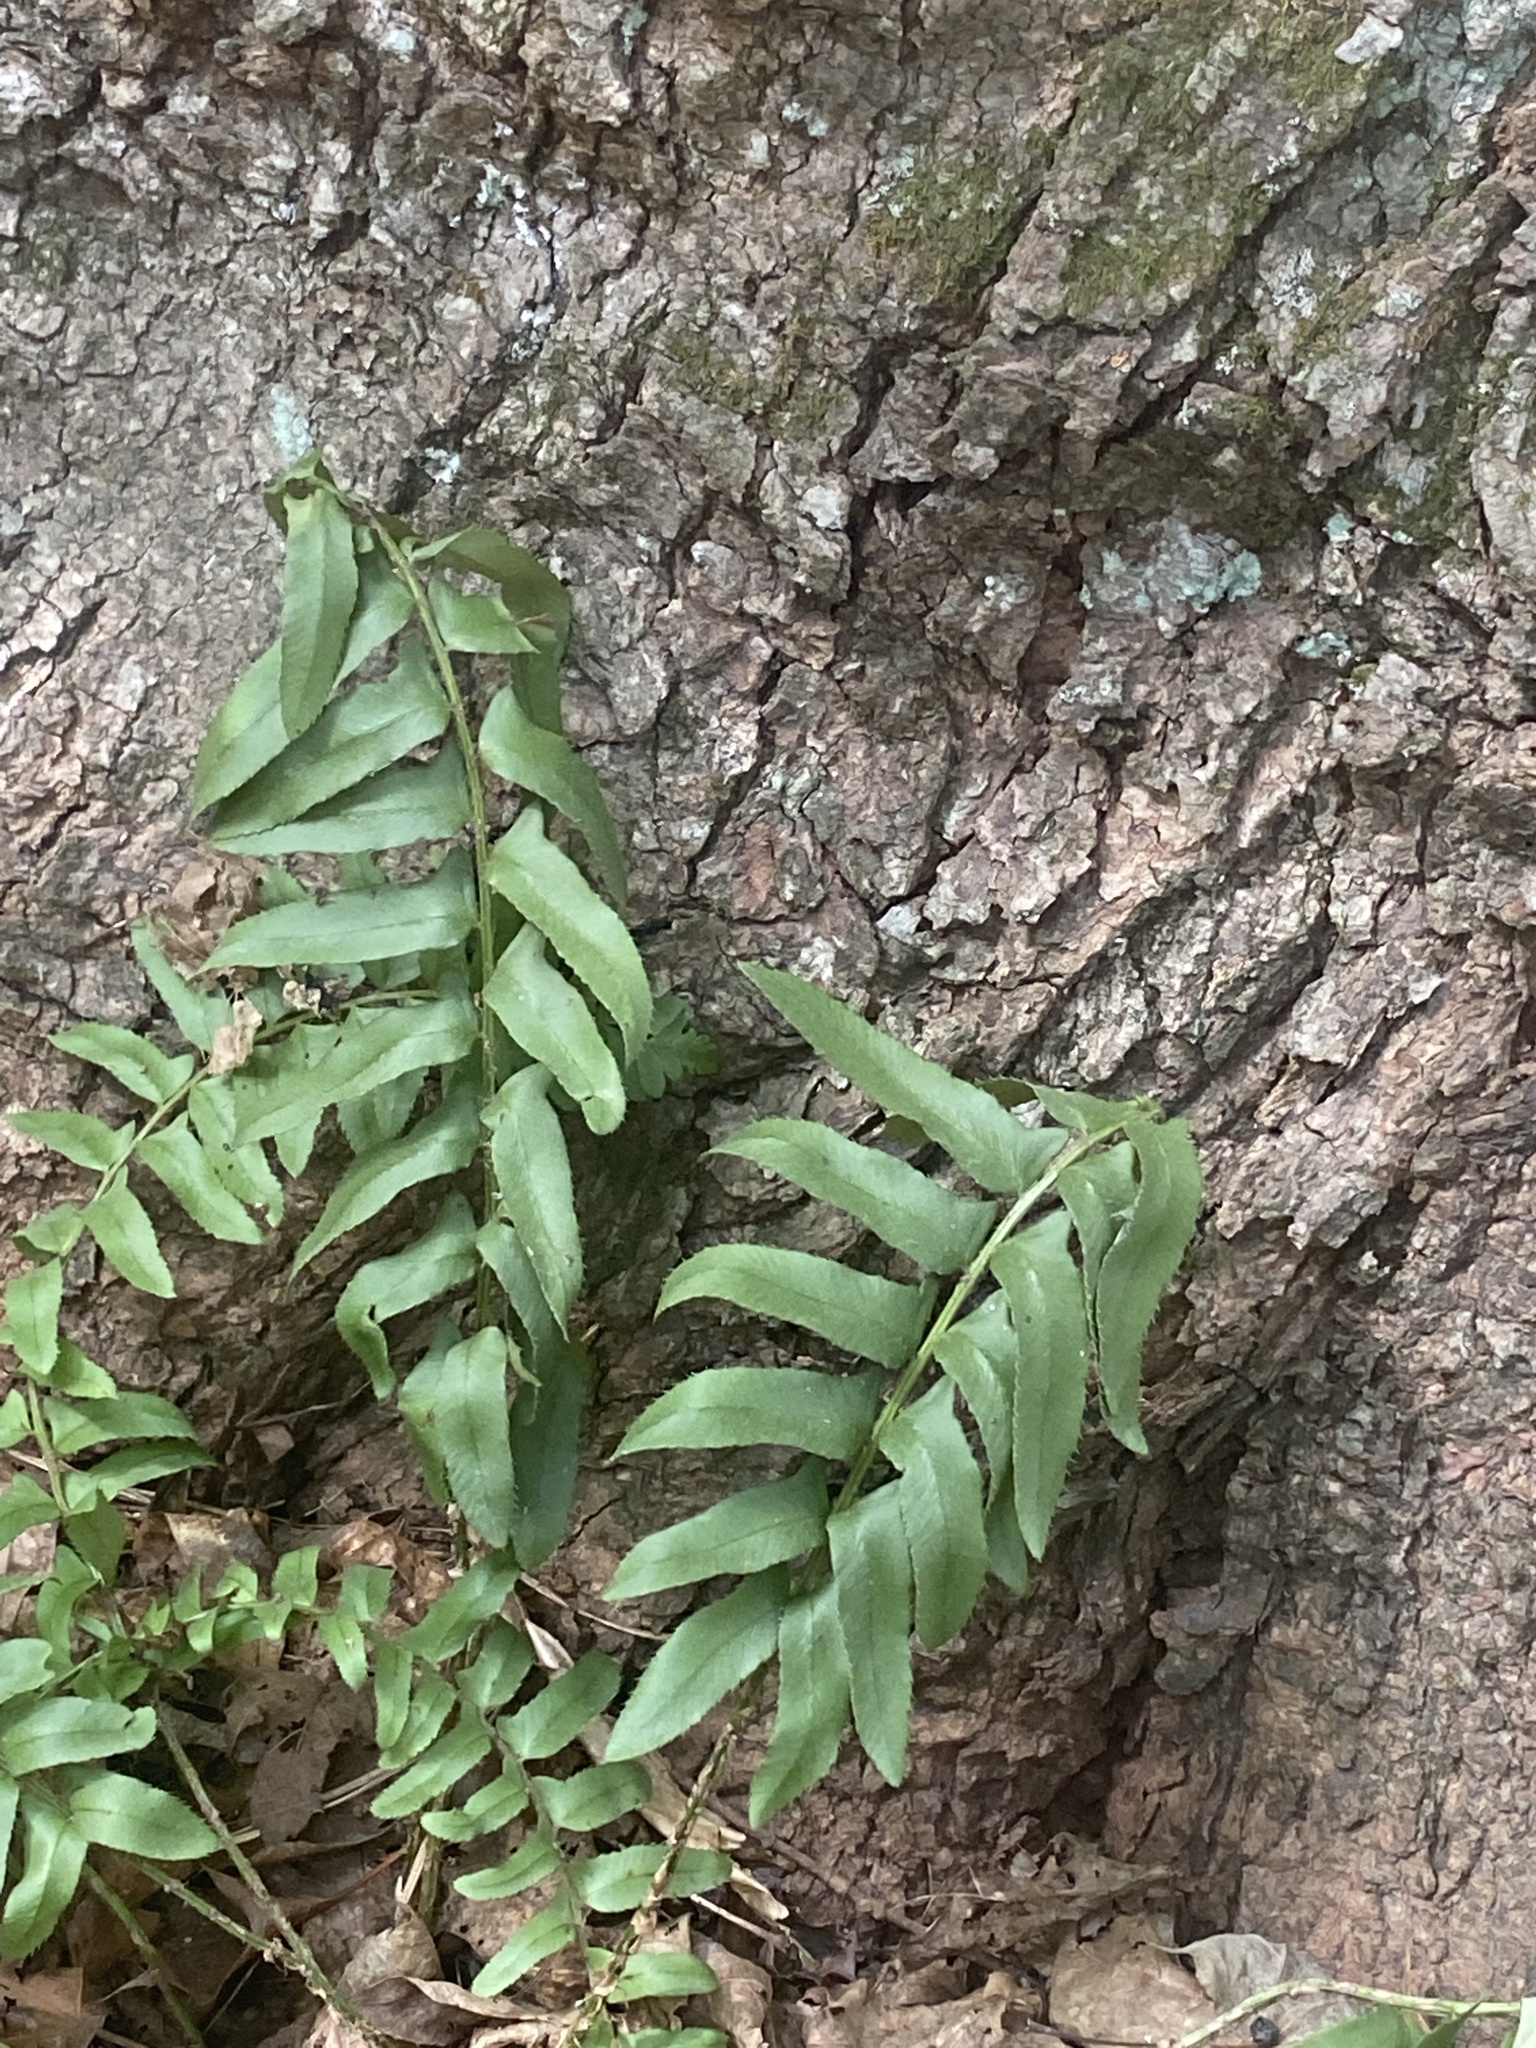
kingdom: Plantae
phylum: Tracheophyta
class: Polypodiopsida
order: Polypodiales
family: Dryopteridaceae
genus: Polystichum
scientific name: Polystichum acrostichoides
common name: Christmas fern
